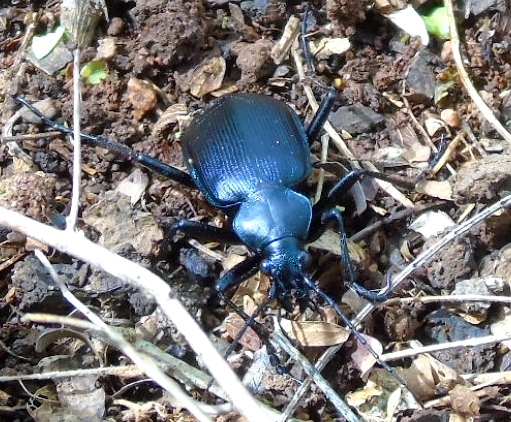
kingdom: Animalia
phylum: Arthropoda
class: Insecta
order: Coleoptera
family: Carabidae
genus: Calosoma
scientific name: Calosoma
